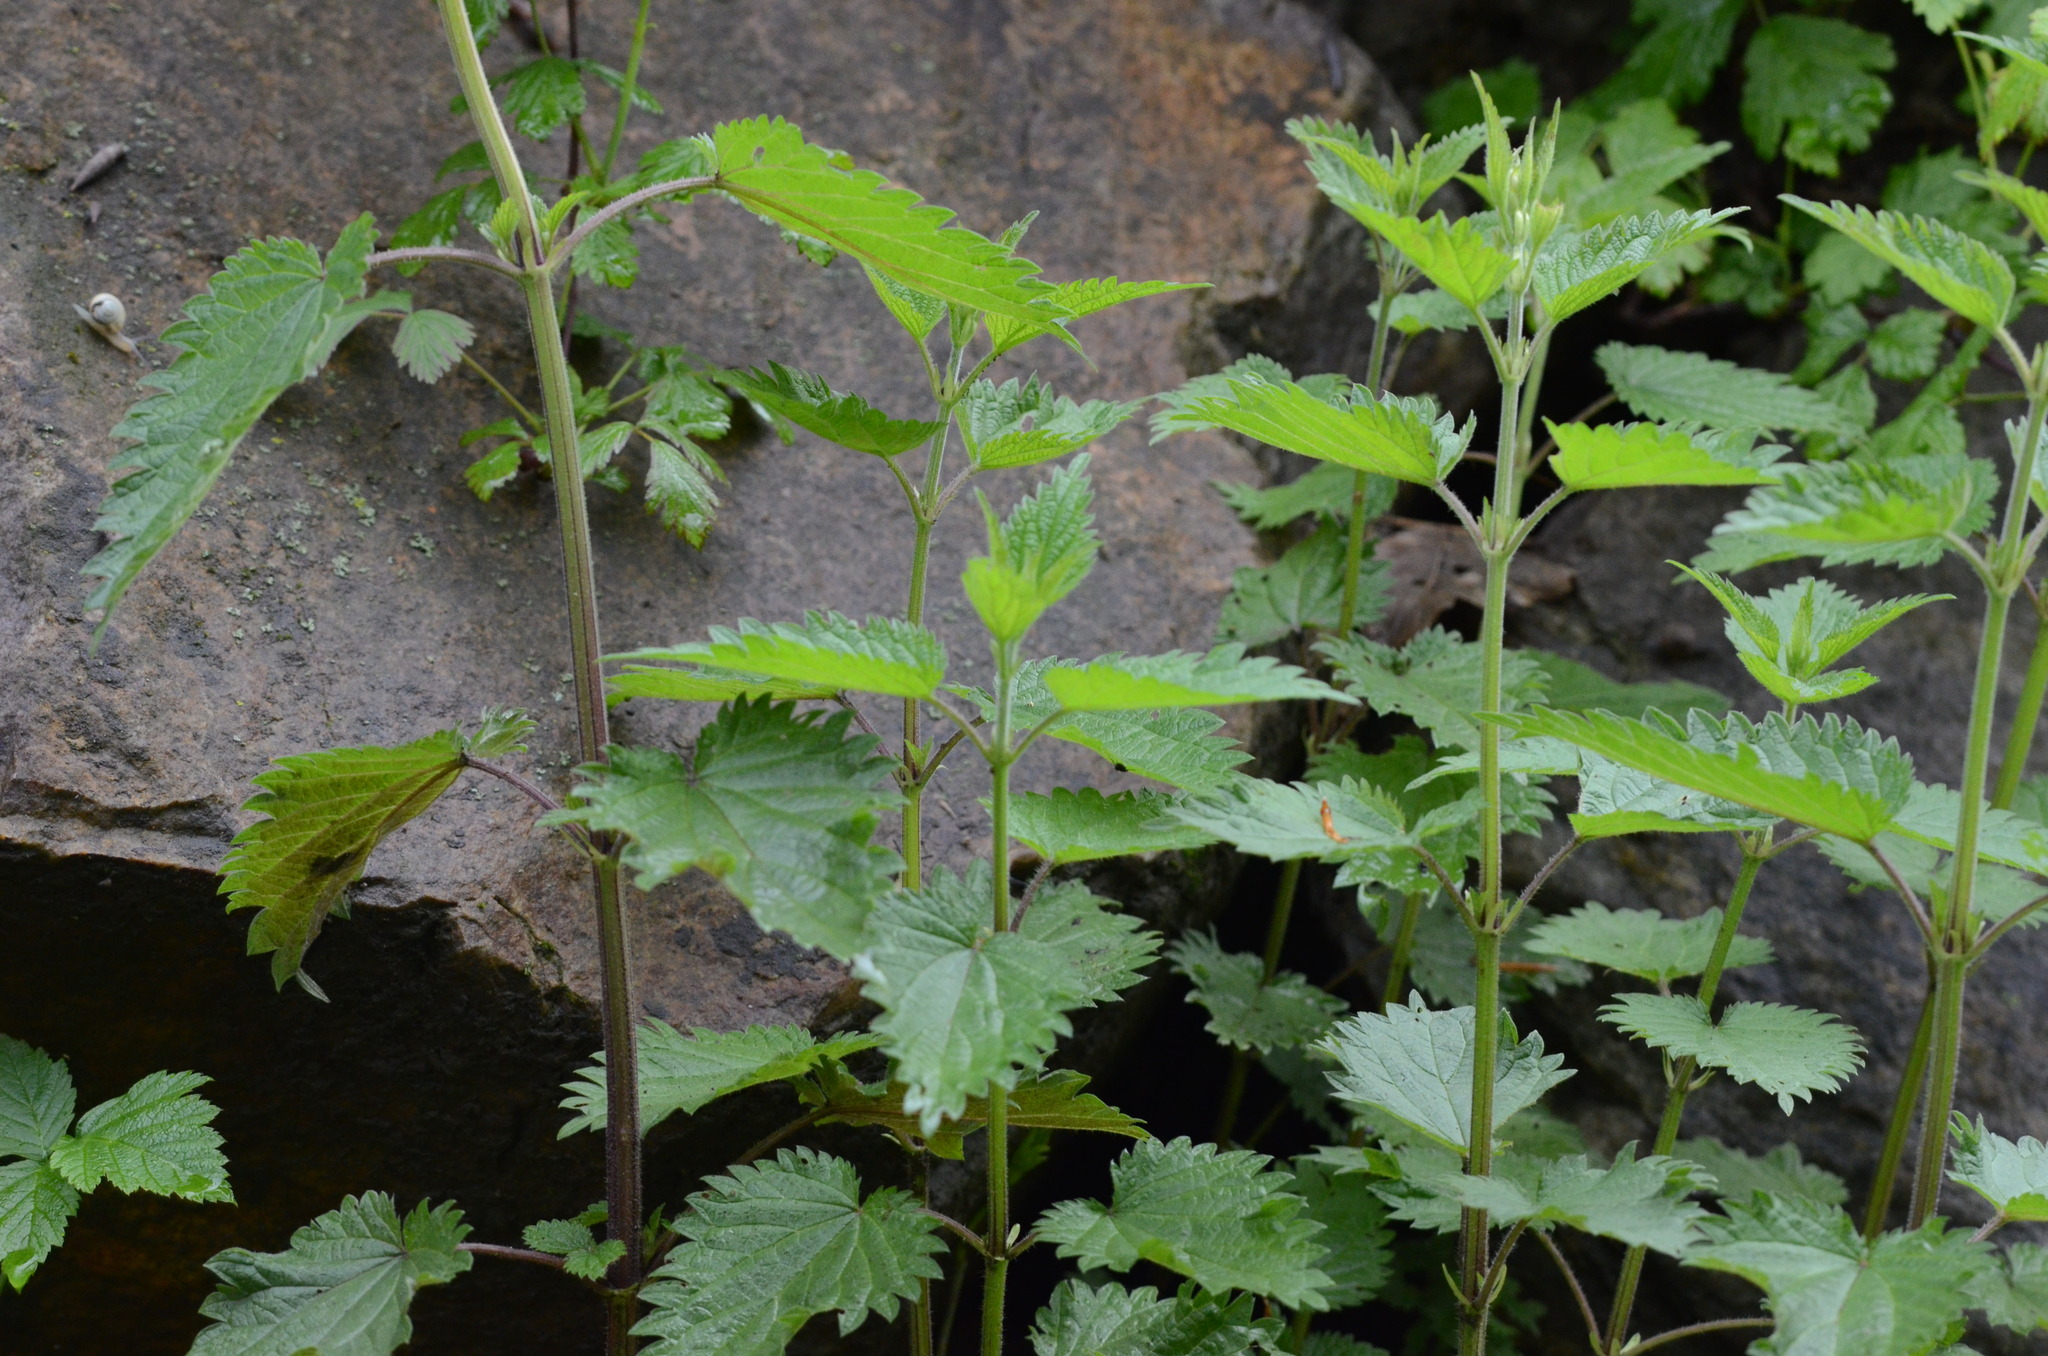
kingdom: Plantae
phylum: Tracheophyta
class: Magnoliopsida
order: Rosales
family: Urticaceae
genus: Urtica
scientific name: Urtica dioica
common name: Common nettle
